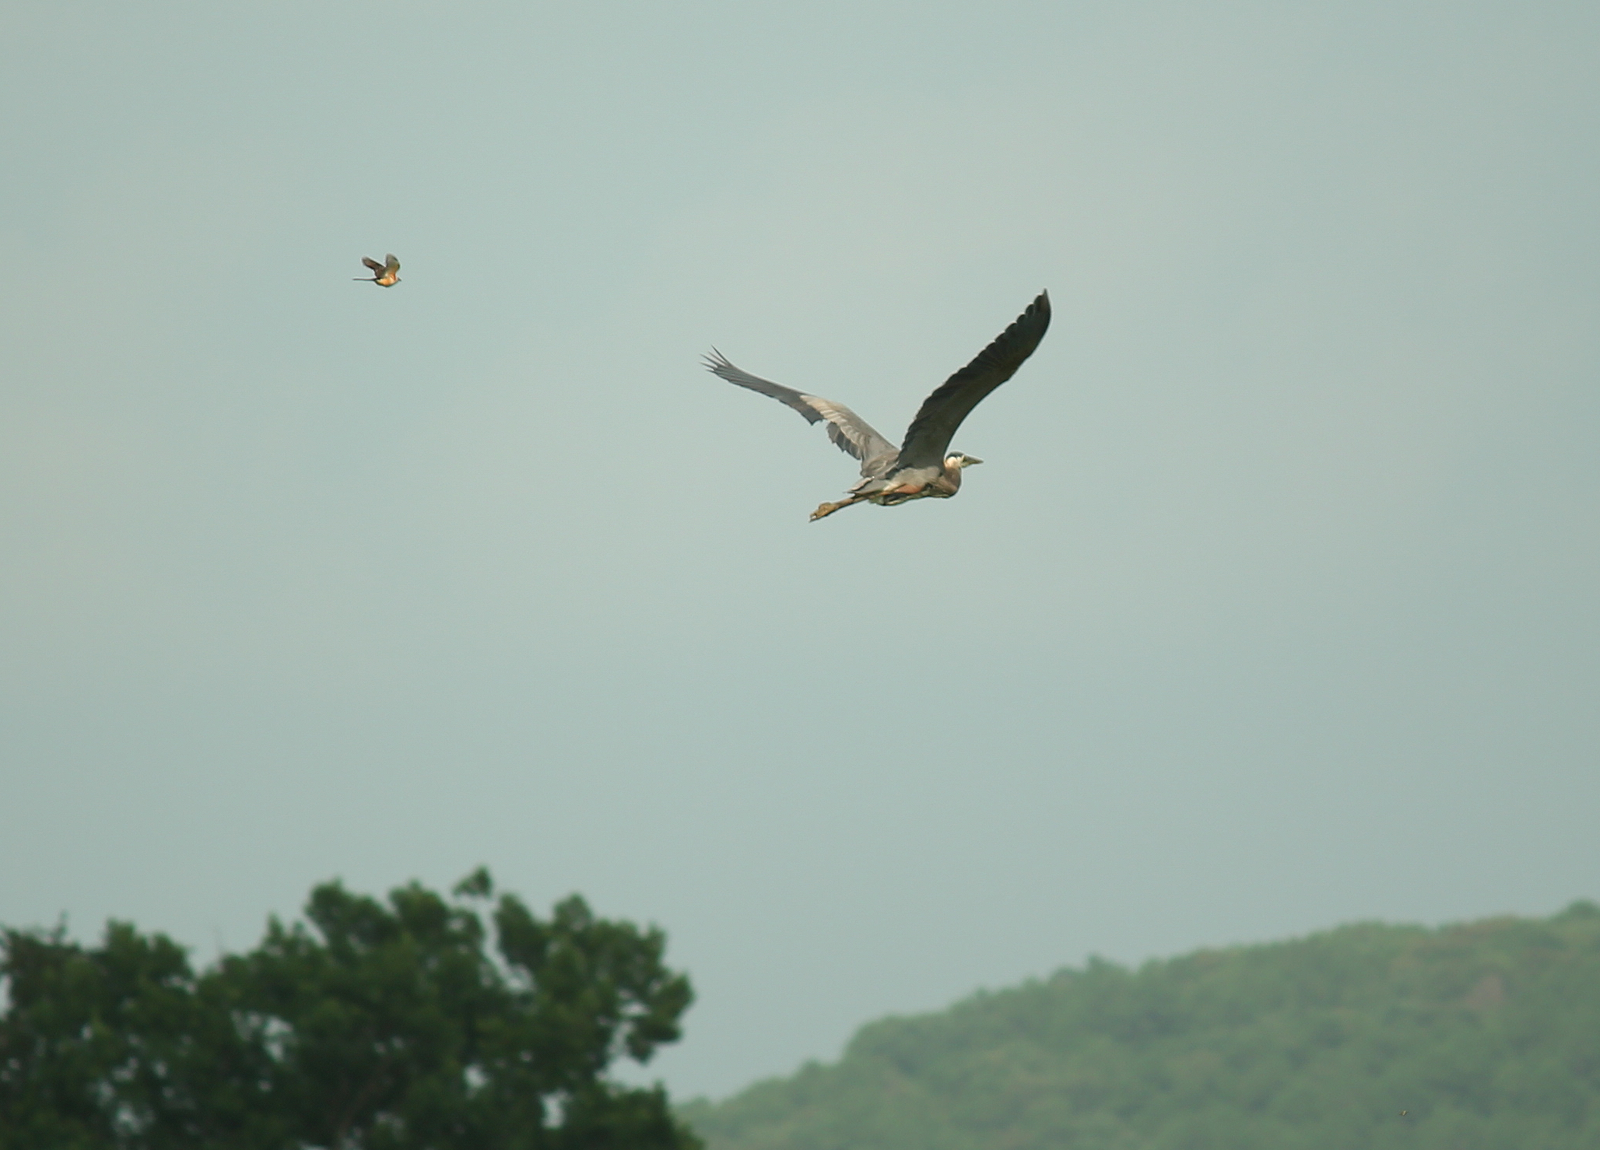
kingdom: Animalia
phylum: Chordata
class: Aves
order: Pelecaniformes
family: Ardeidae
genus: Ardea
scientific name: Ardea herodias
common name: Great blue heron
